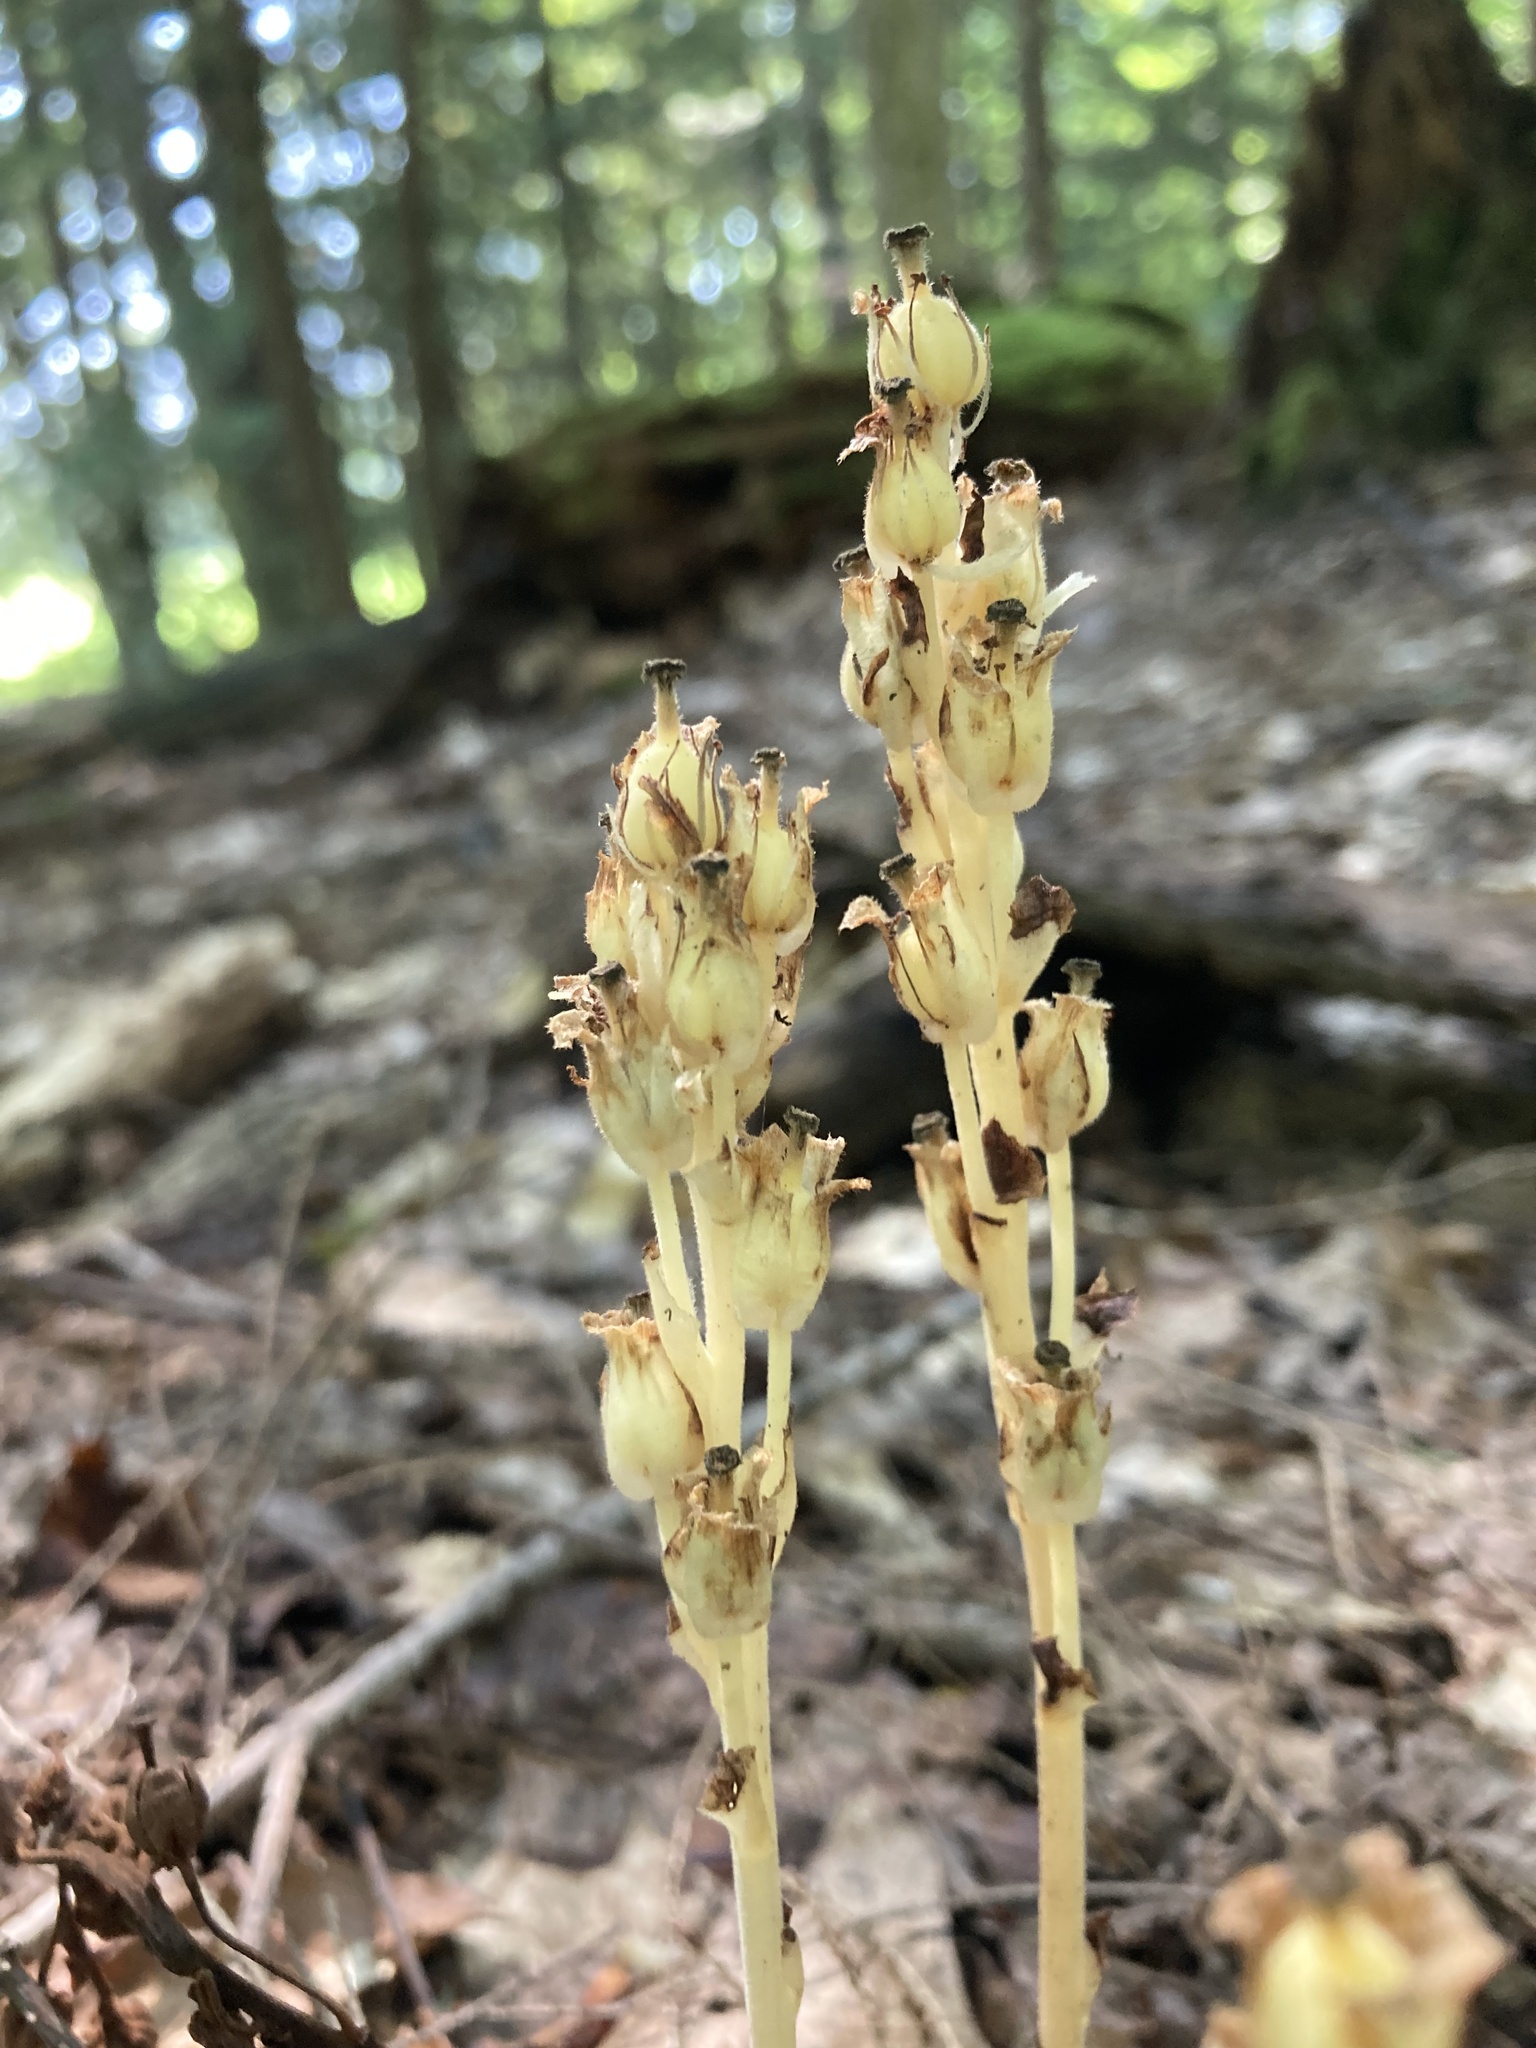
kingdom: Plantae
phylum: Tracheophyta
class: Magnoliopsida
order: Ericales
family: Ericaceae
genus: Hypopitys
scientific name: Hypopitys monotropa
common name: Yellow bird's-nest
